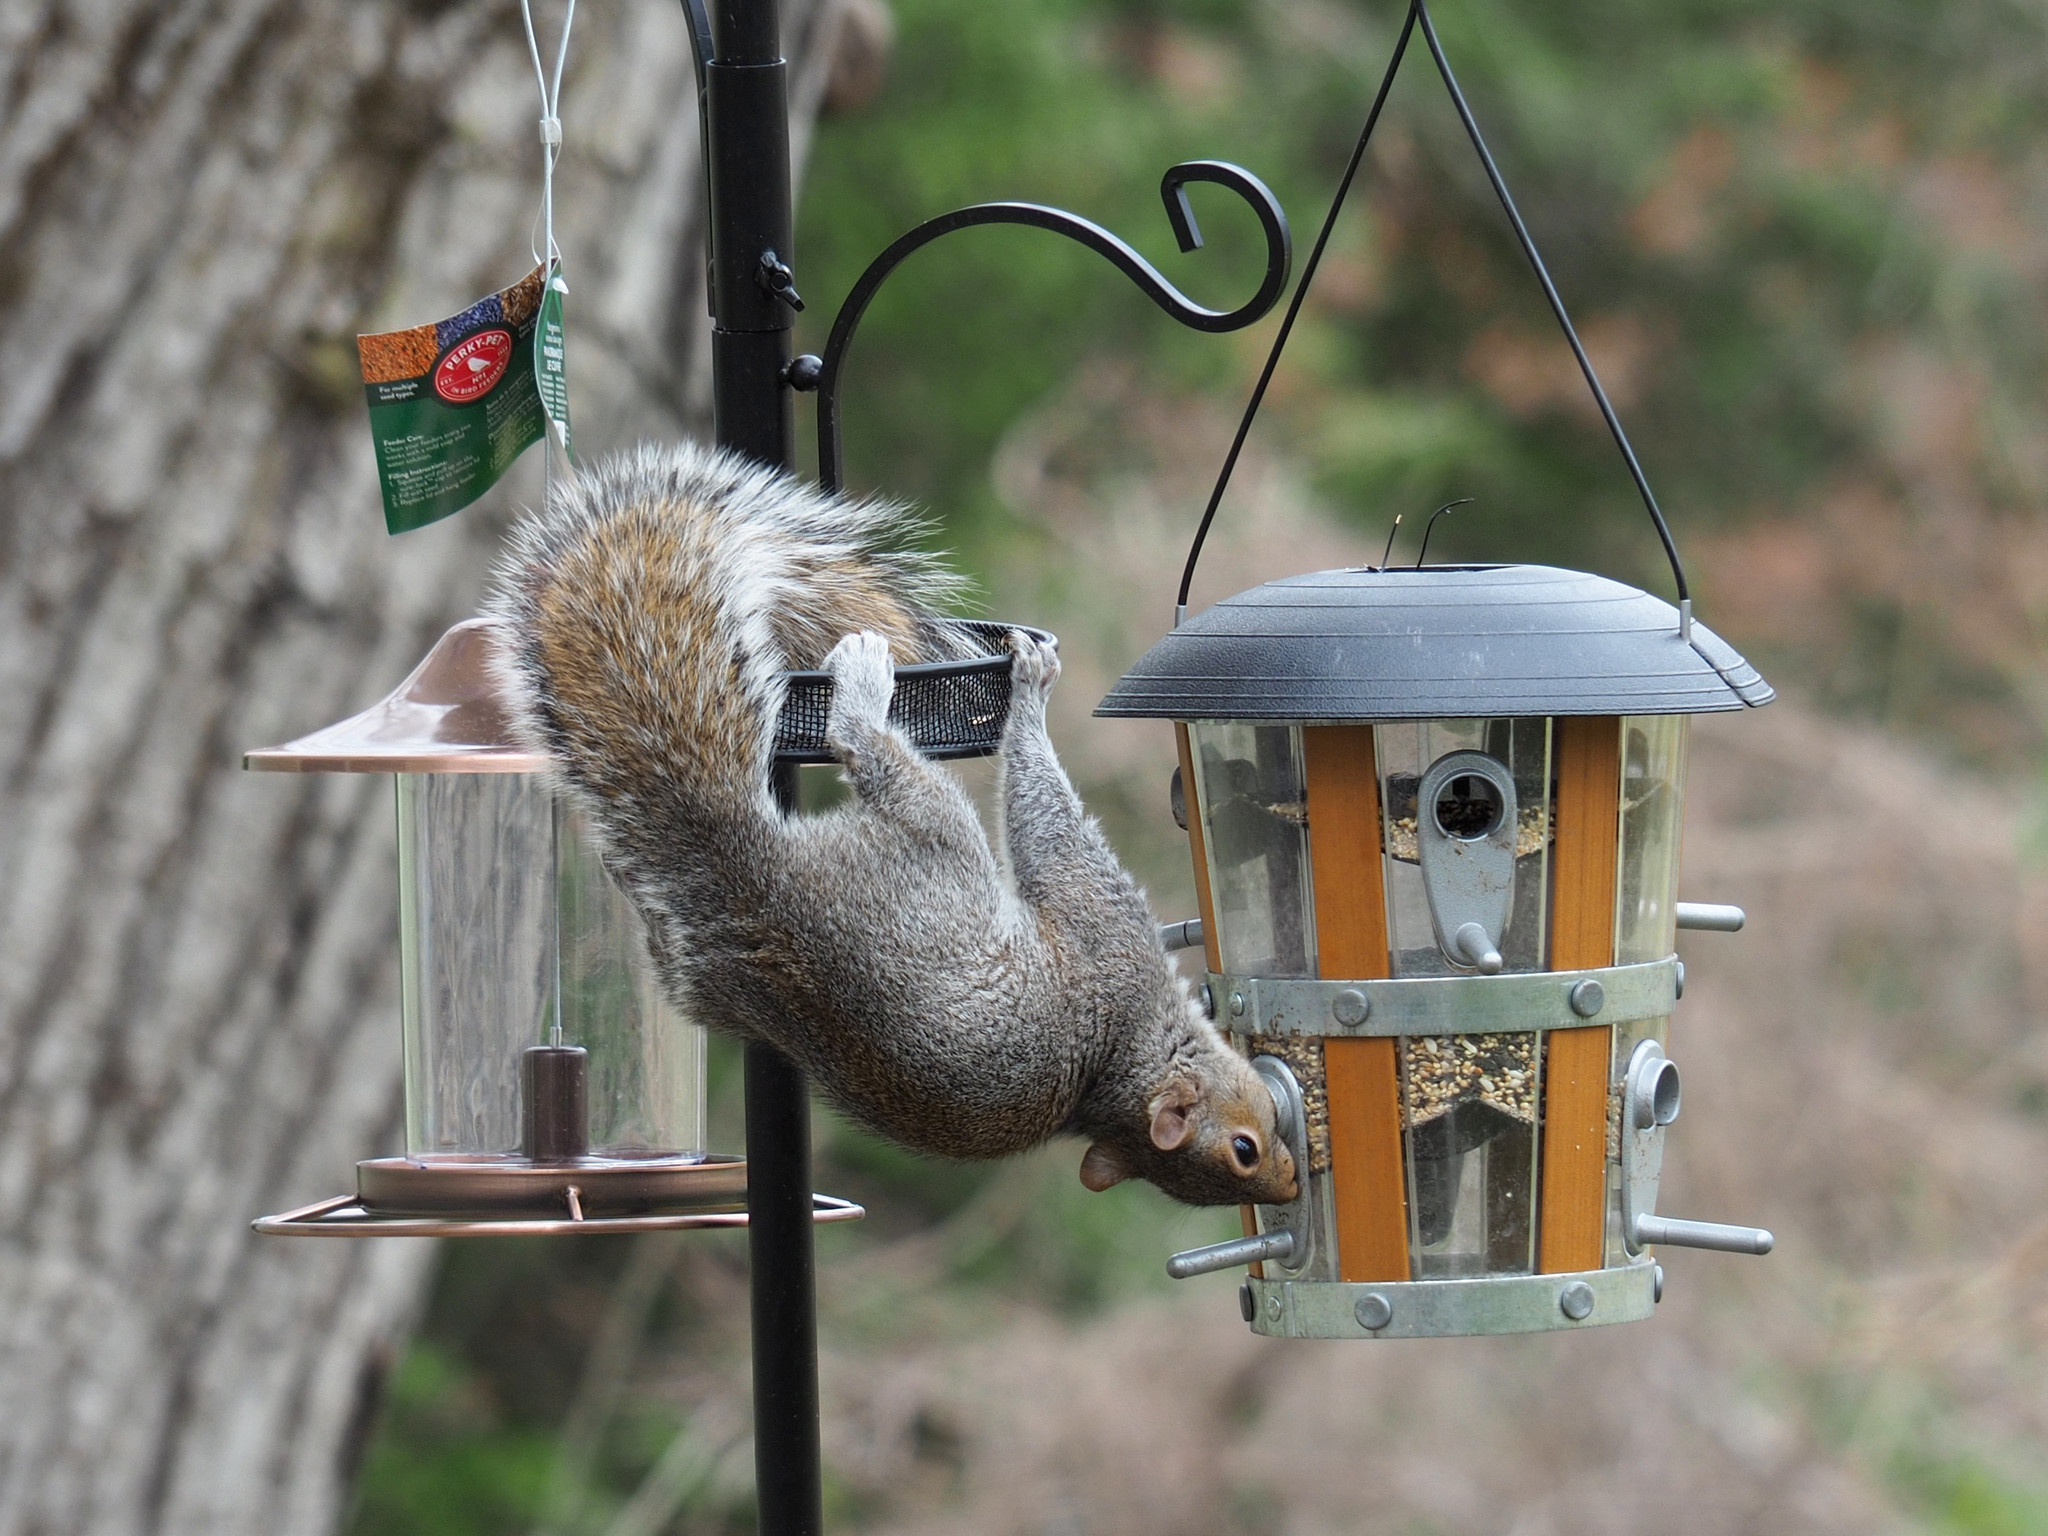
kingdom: Animalia
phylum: Chordata
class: Mammalia
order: Rodentia
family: Sciuridae
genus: Sciurus
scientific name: Sciurus carolinensis
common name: Eastern gray squirrel
